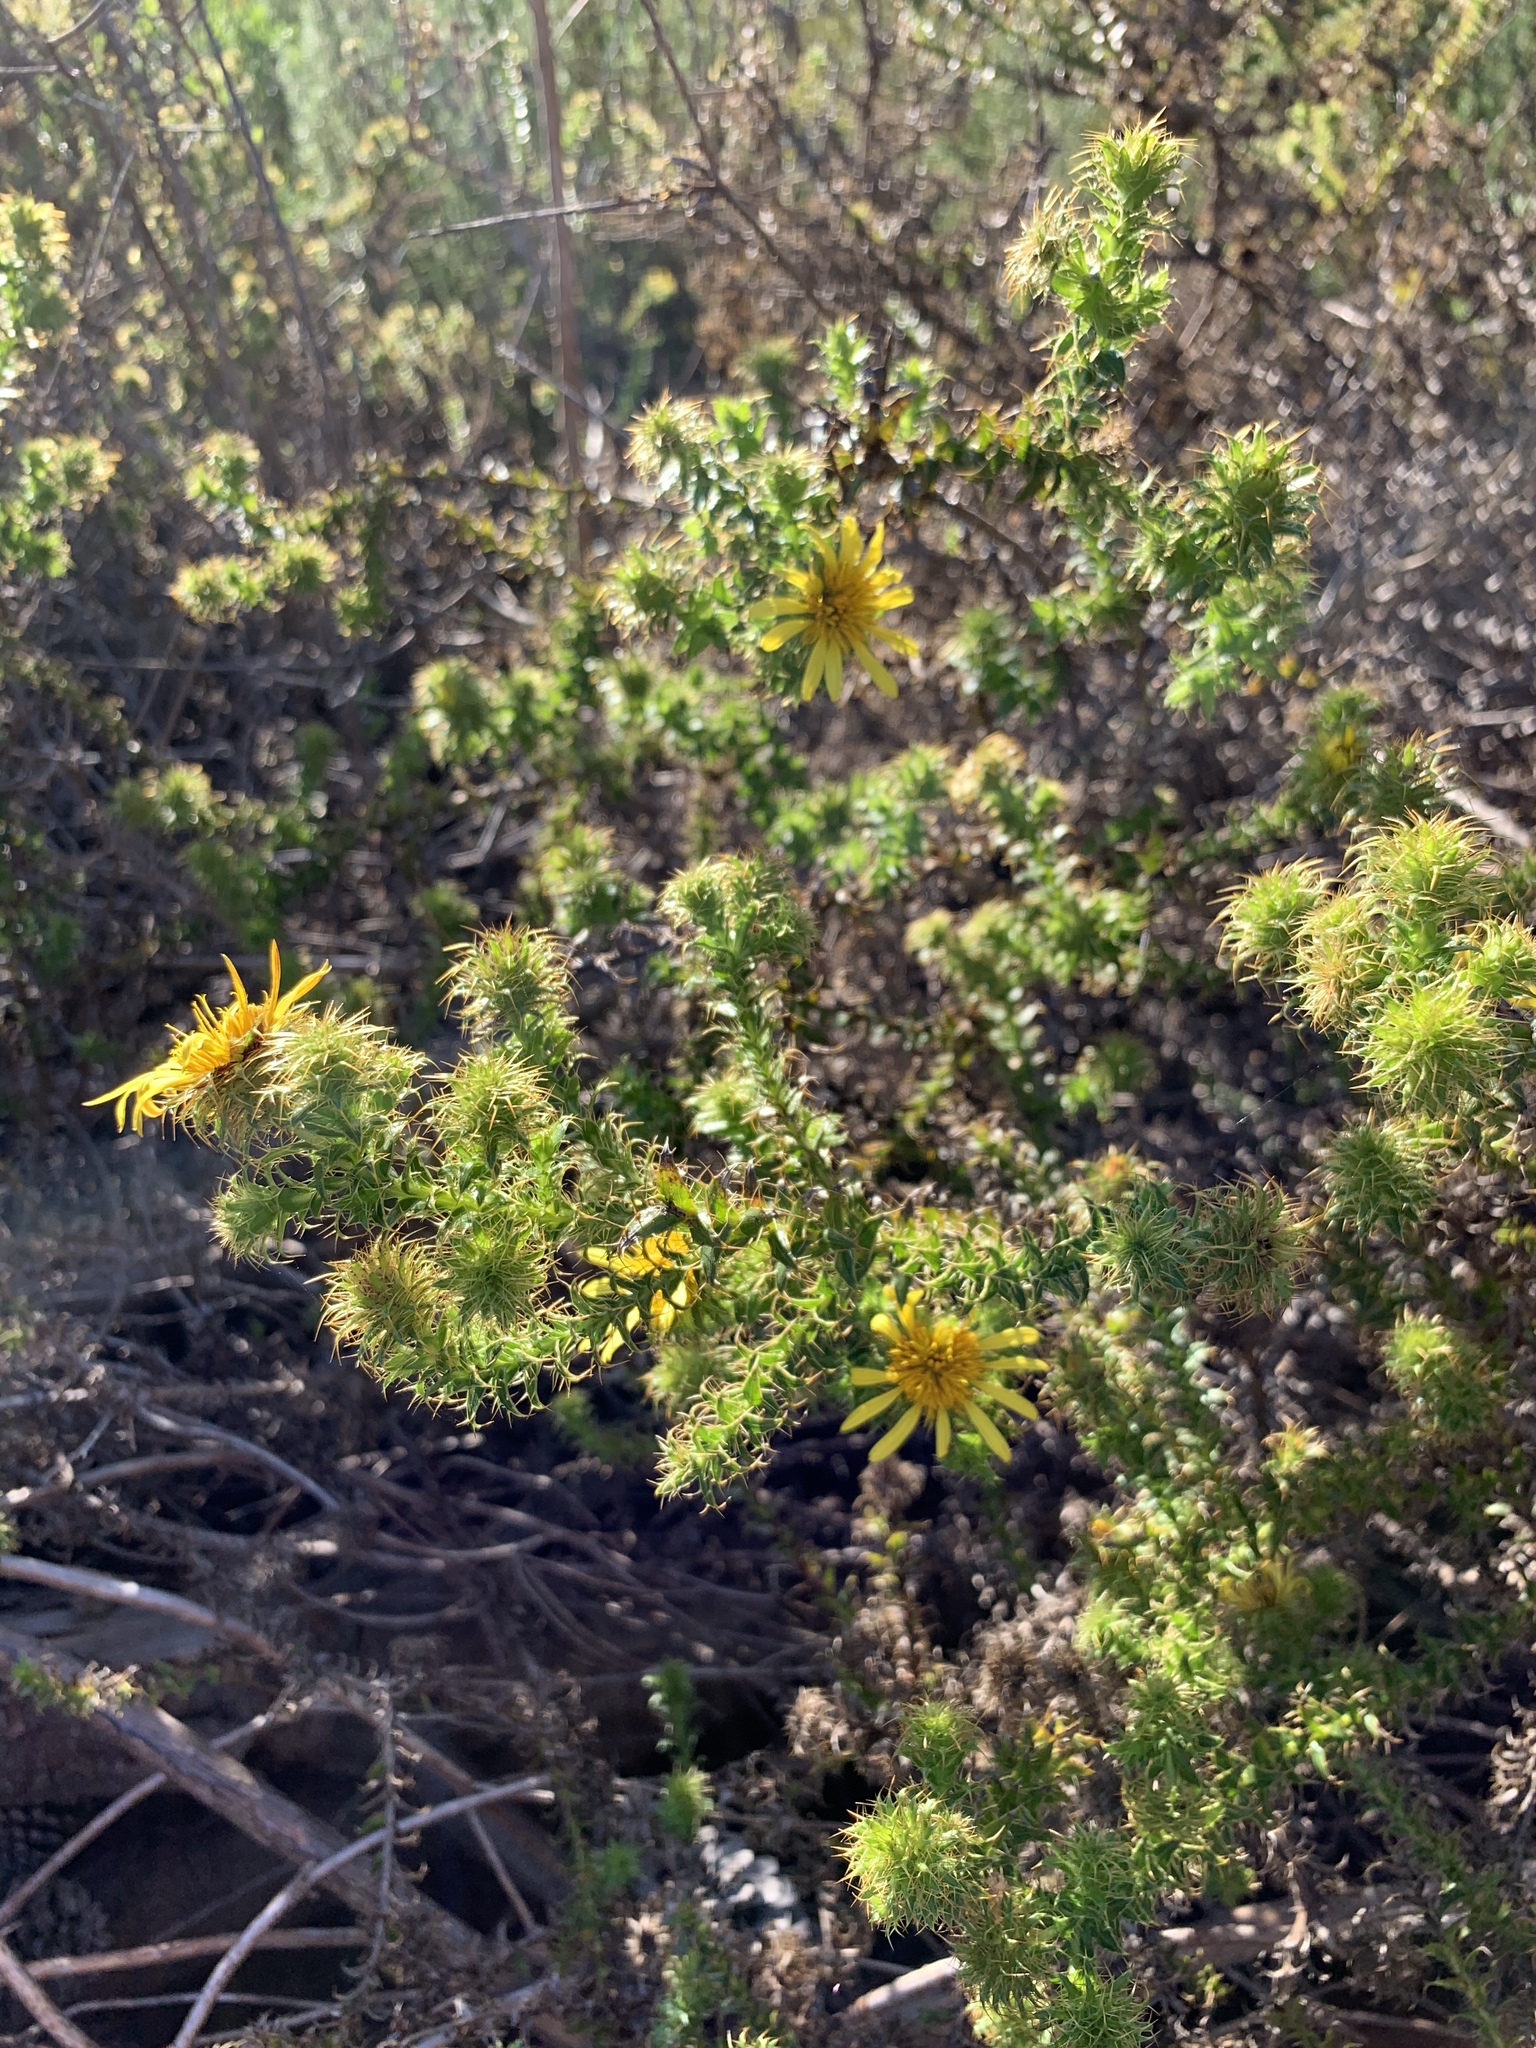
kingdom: Plantae
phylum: Tracheophyta
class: Magnoliopsida
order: Asterales
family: Asteraceae
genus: Cullumia
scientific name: Cullumia setosa
